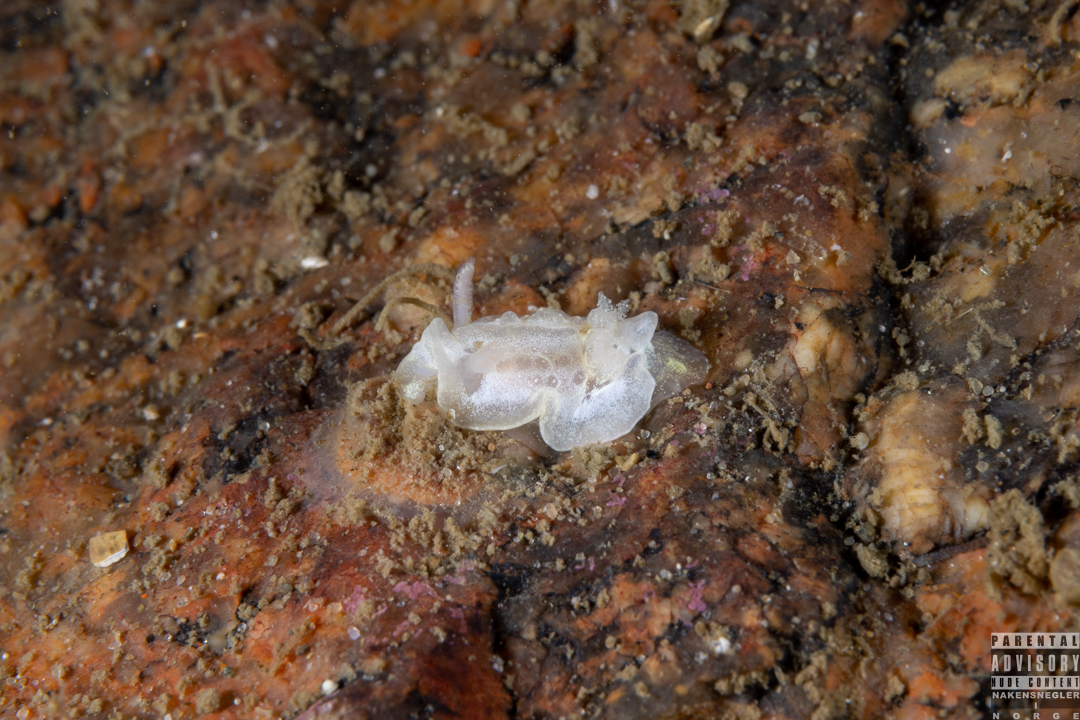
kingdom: Animalia
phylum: Mollusca
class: Gastropoda
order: Nudibranchia
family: Goniodorididae
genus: Okenia
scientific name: Okenia
